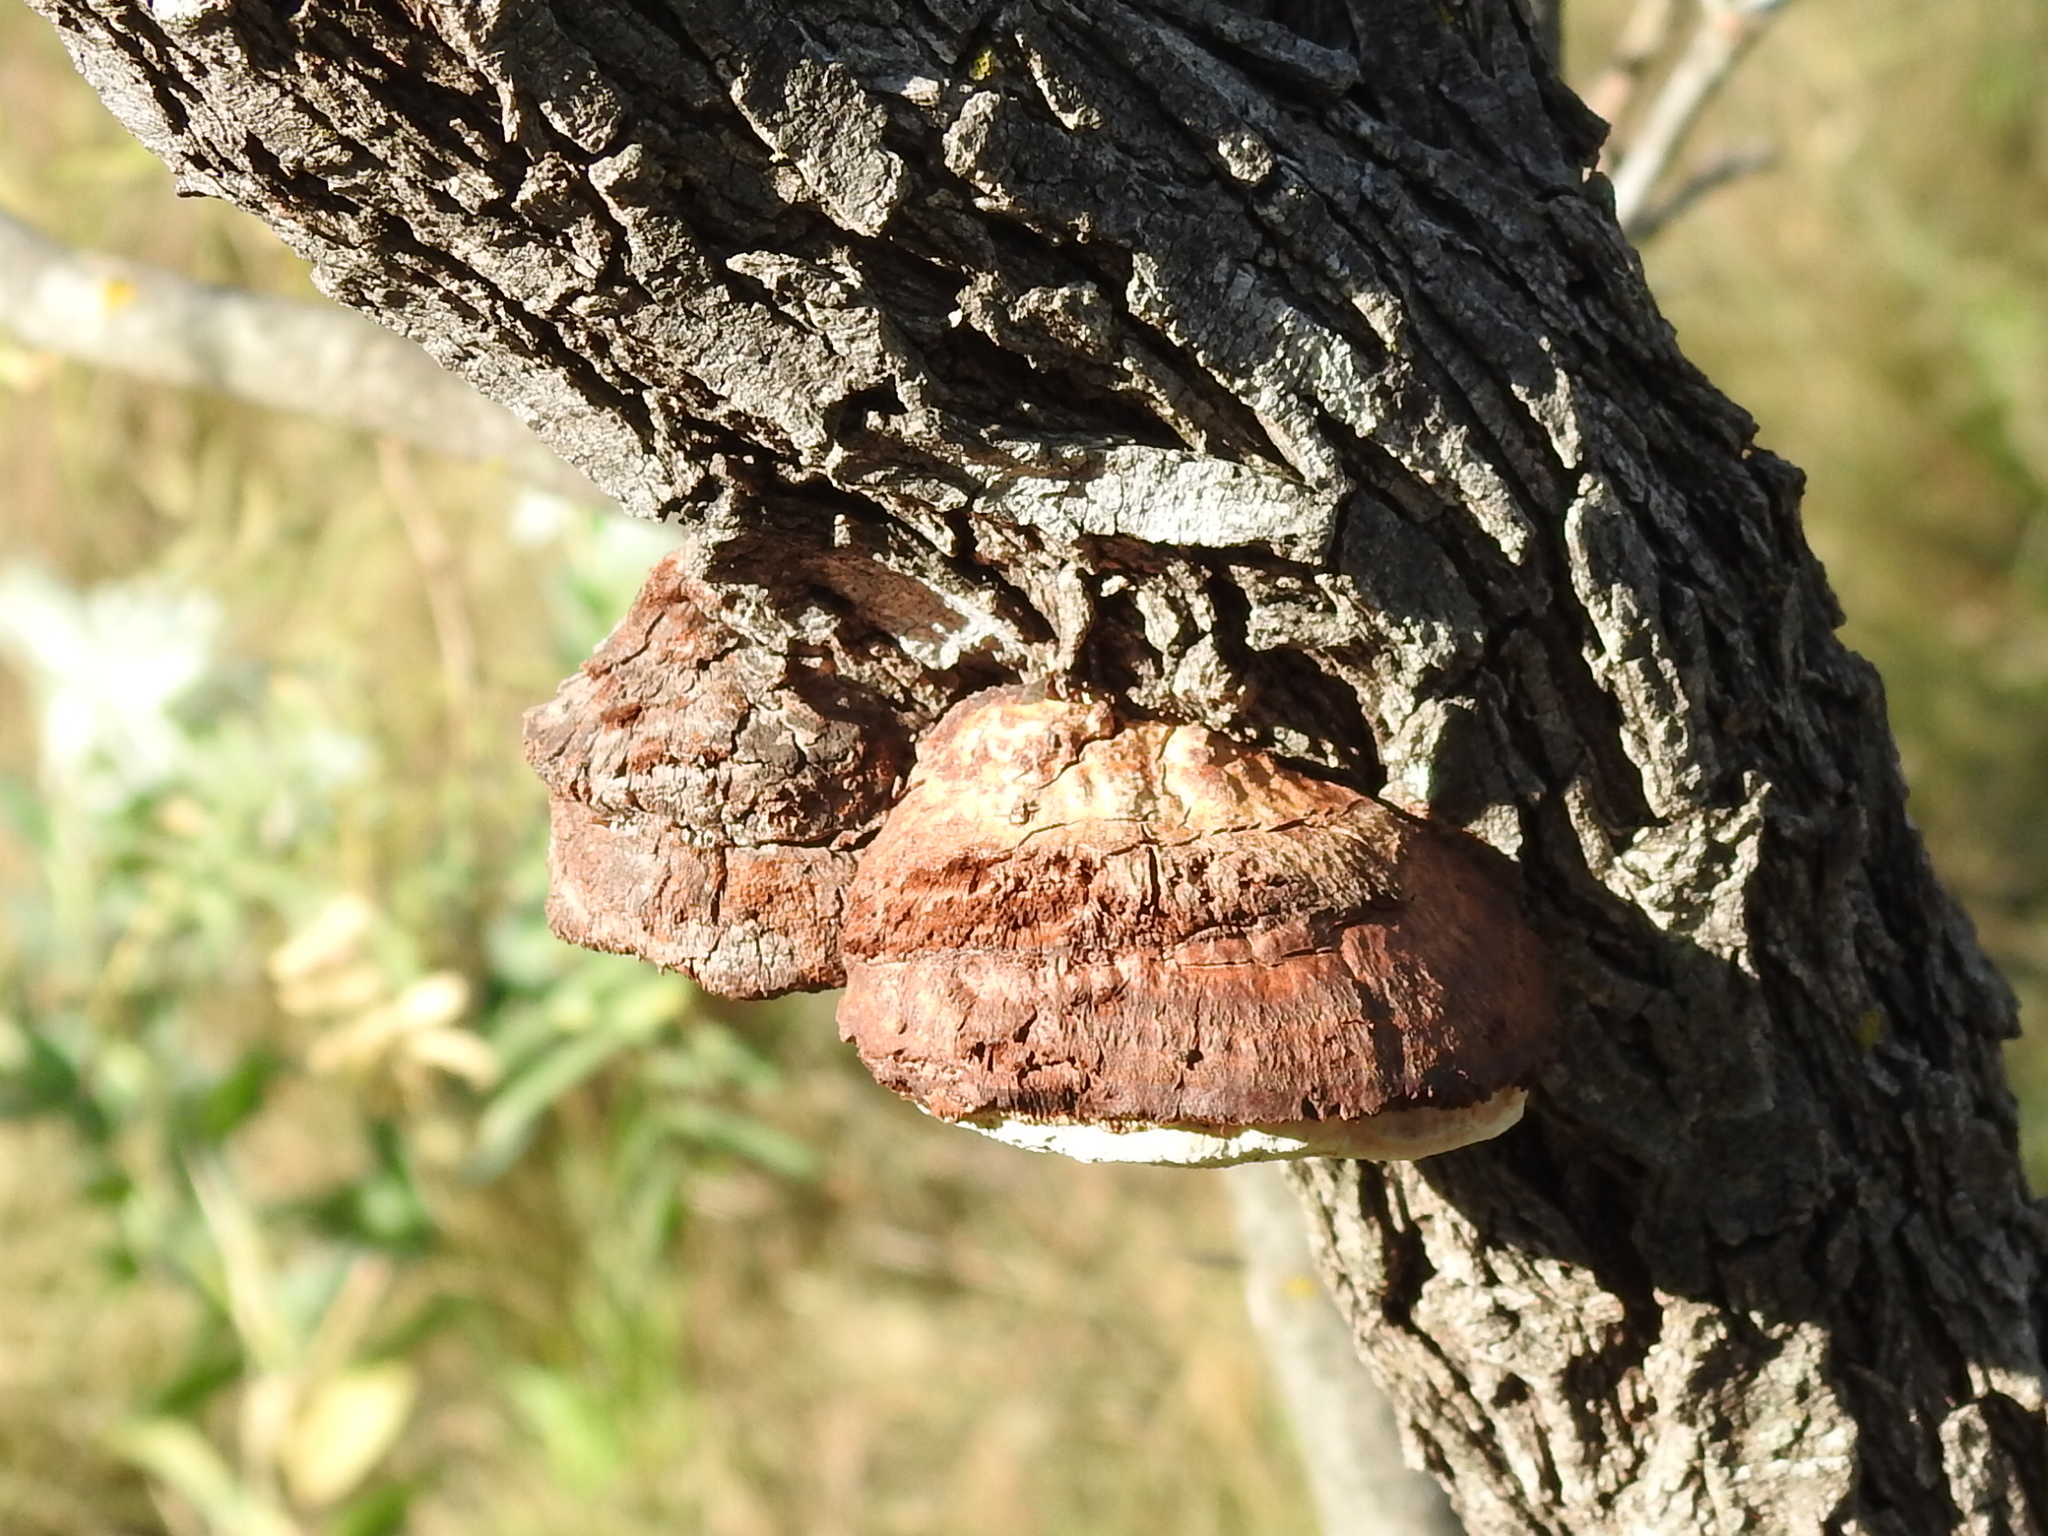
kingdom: Fungi
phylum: Basidiomycota
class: Agaricomycetes
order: Hymenochaetales
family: Hymenochaetaceae
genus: Inocutis
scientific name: Inocutis texana
